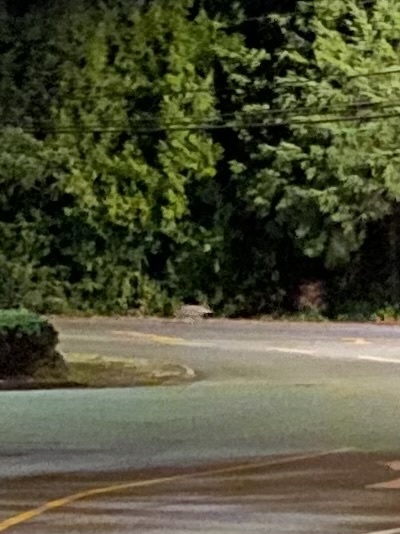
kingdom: Animalia
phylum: Chordata
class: Mammalia
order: Carnivora
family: Canidae
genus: Canis
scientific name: Canis latrans
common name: Coyote
